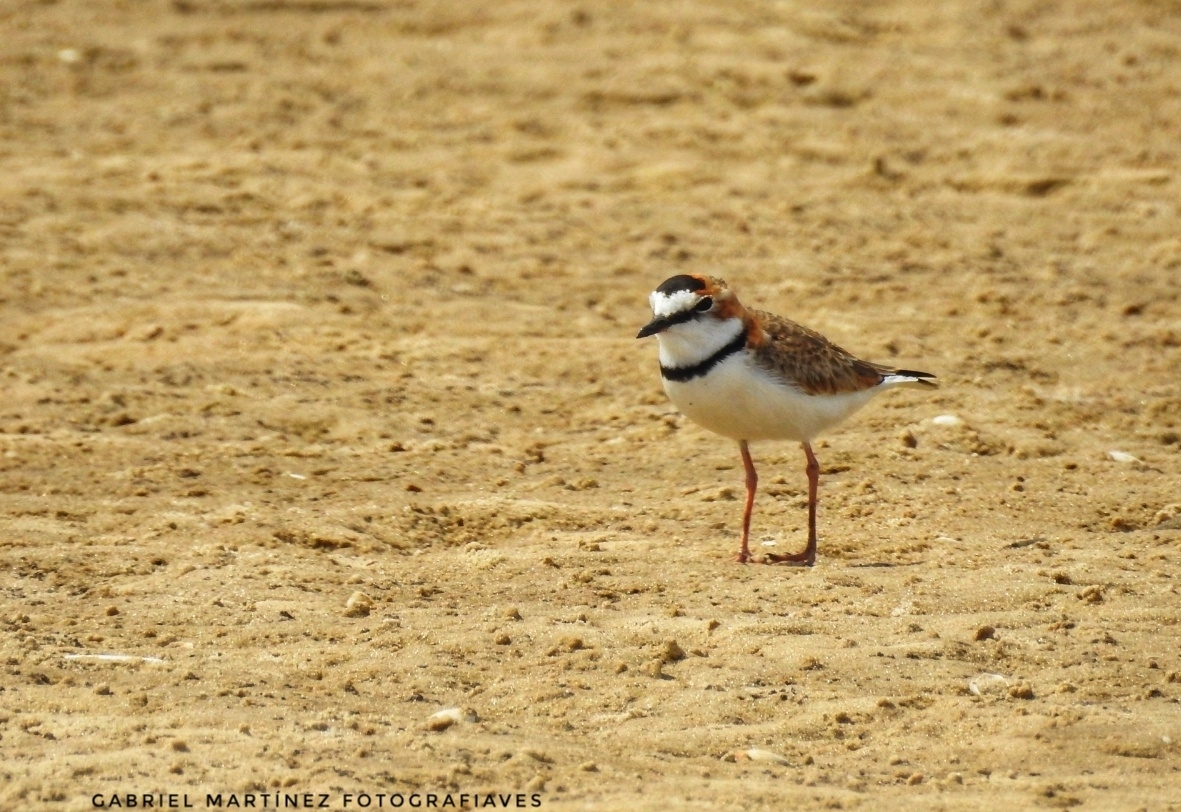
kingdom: Animalia
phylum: Chordata
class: Aves
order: Charadriiformes
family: Charadriidae
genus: Anarhynchus
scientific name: Anarhynchus
